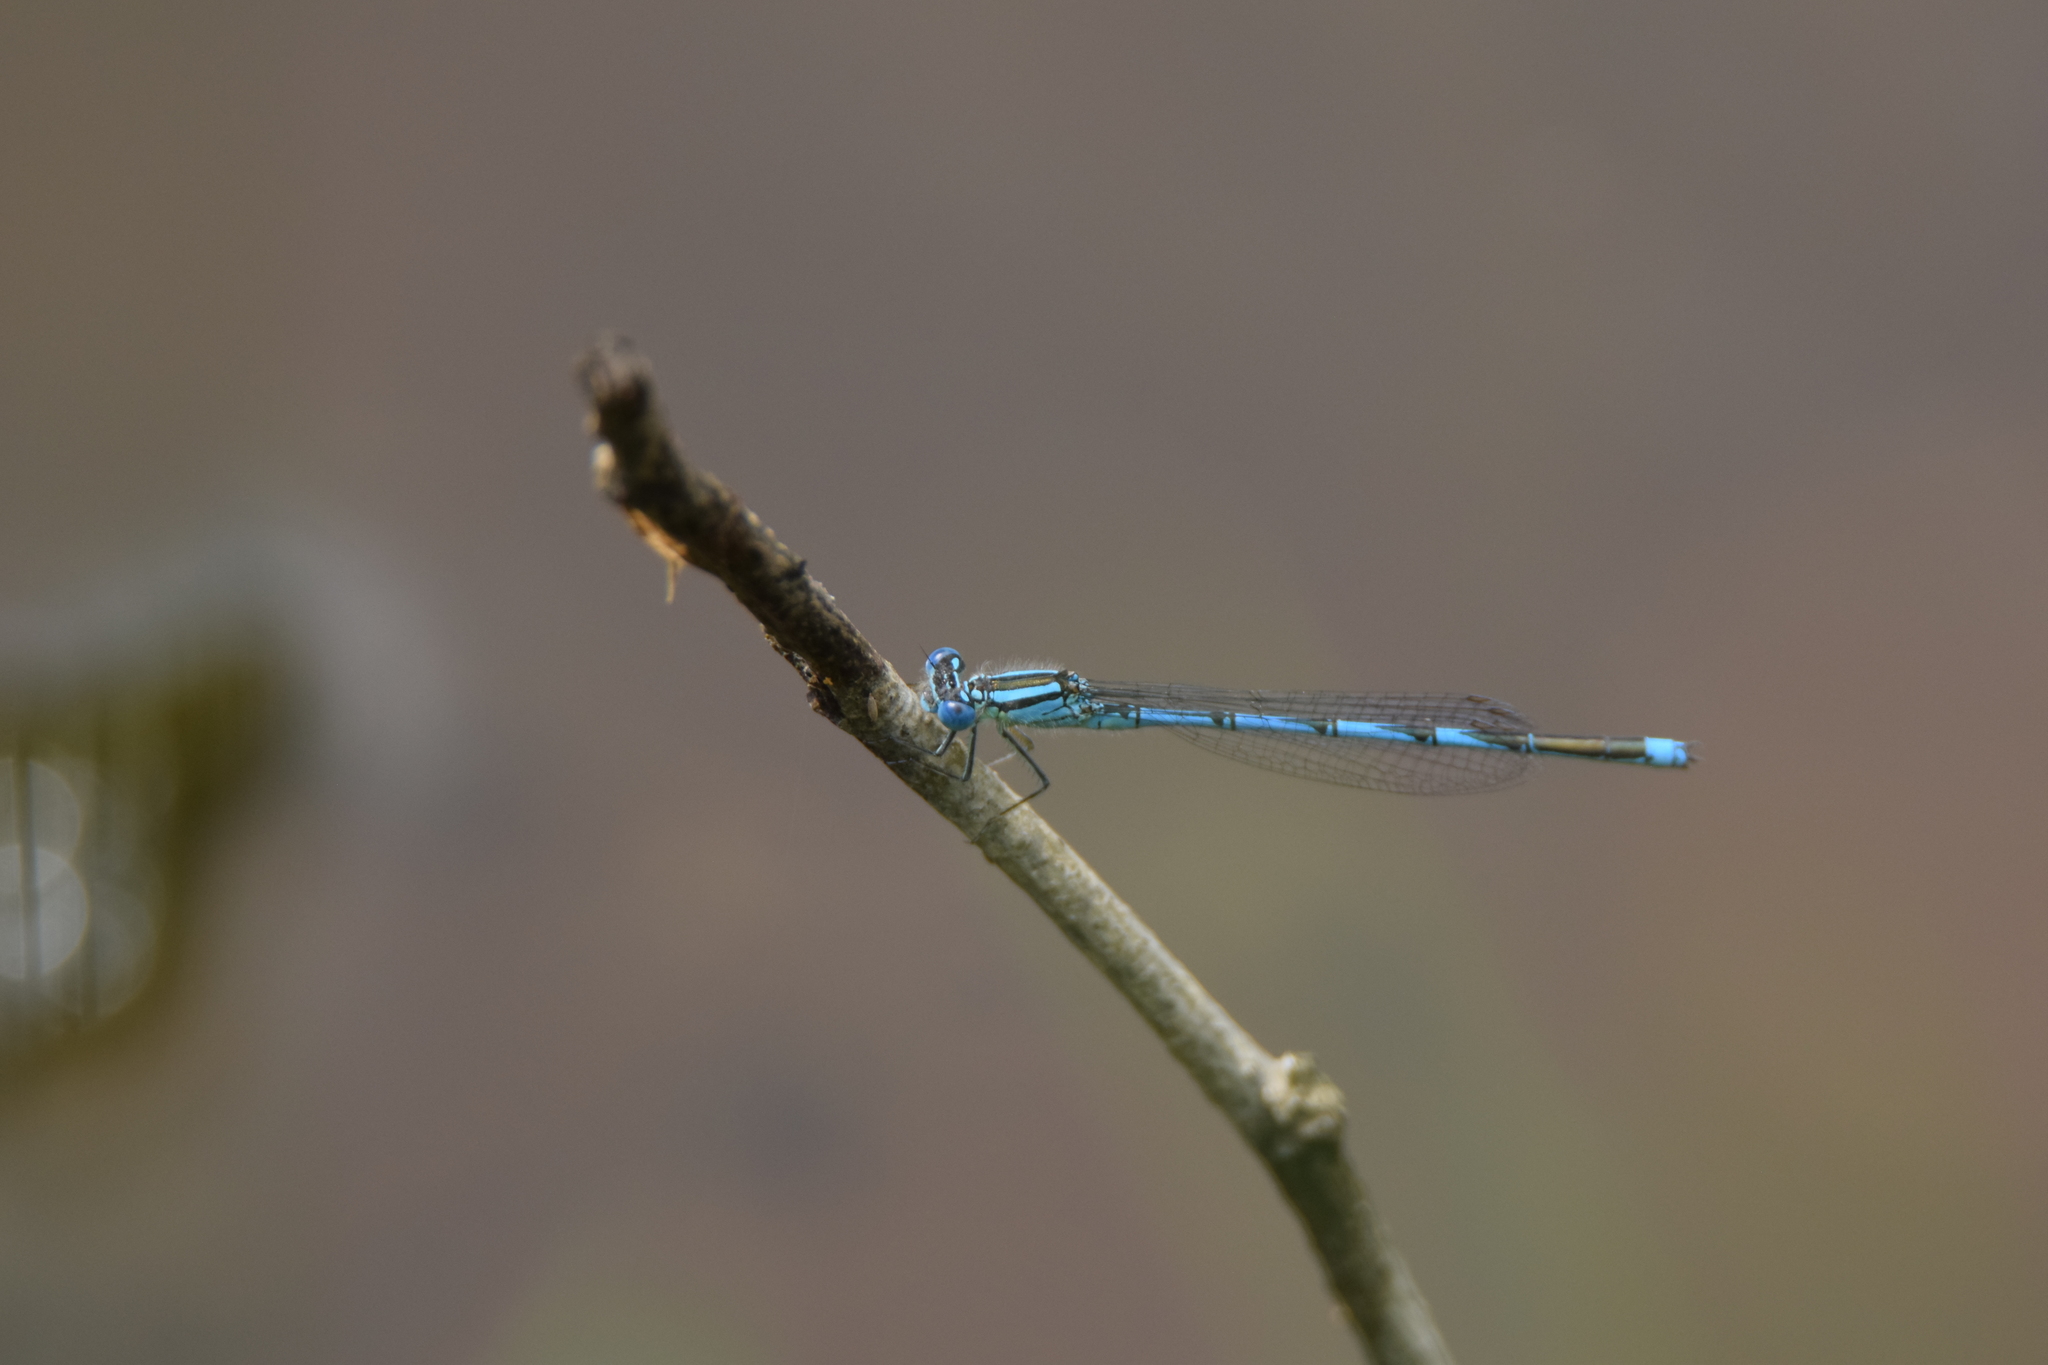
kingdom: Animalia
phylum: Arthropoda
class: Insecta
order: Odonata
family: Coenagrionidae
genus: Erythromma
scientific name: Erythromma lindenii
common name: Blue-eye
